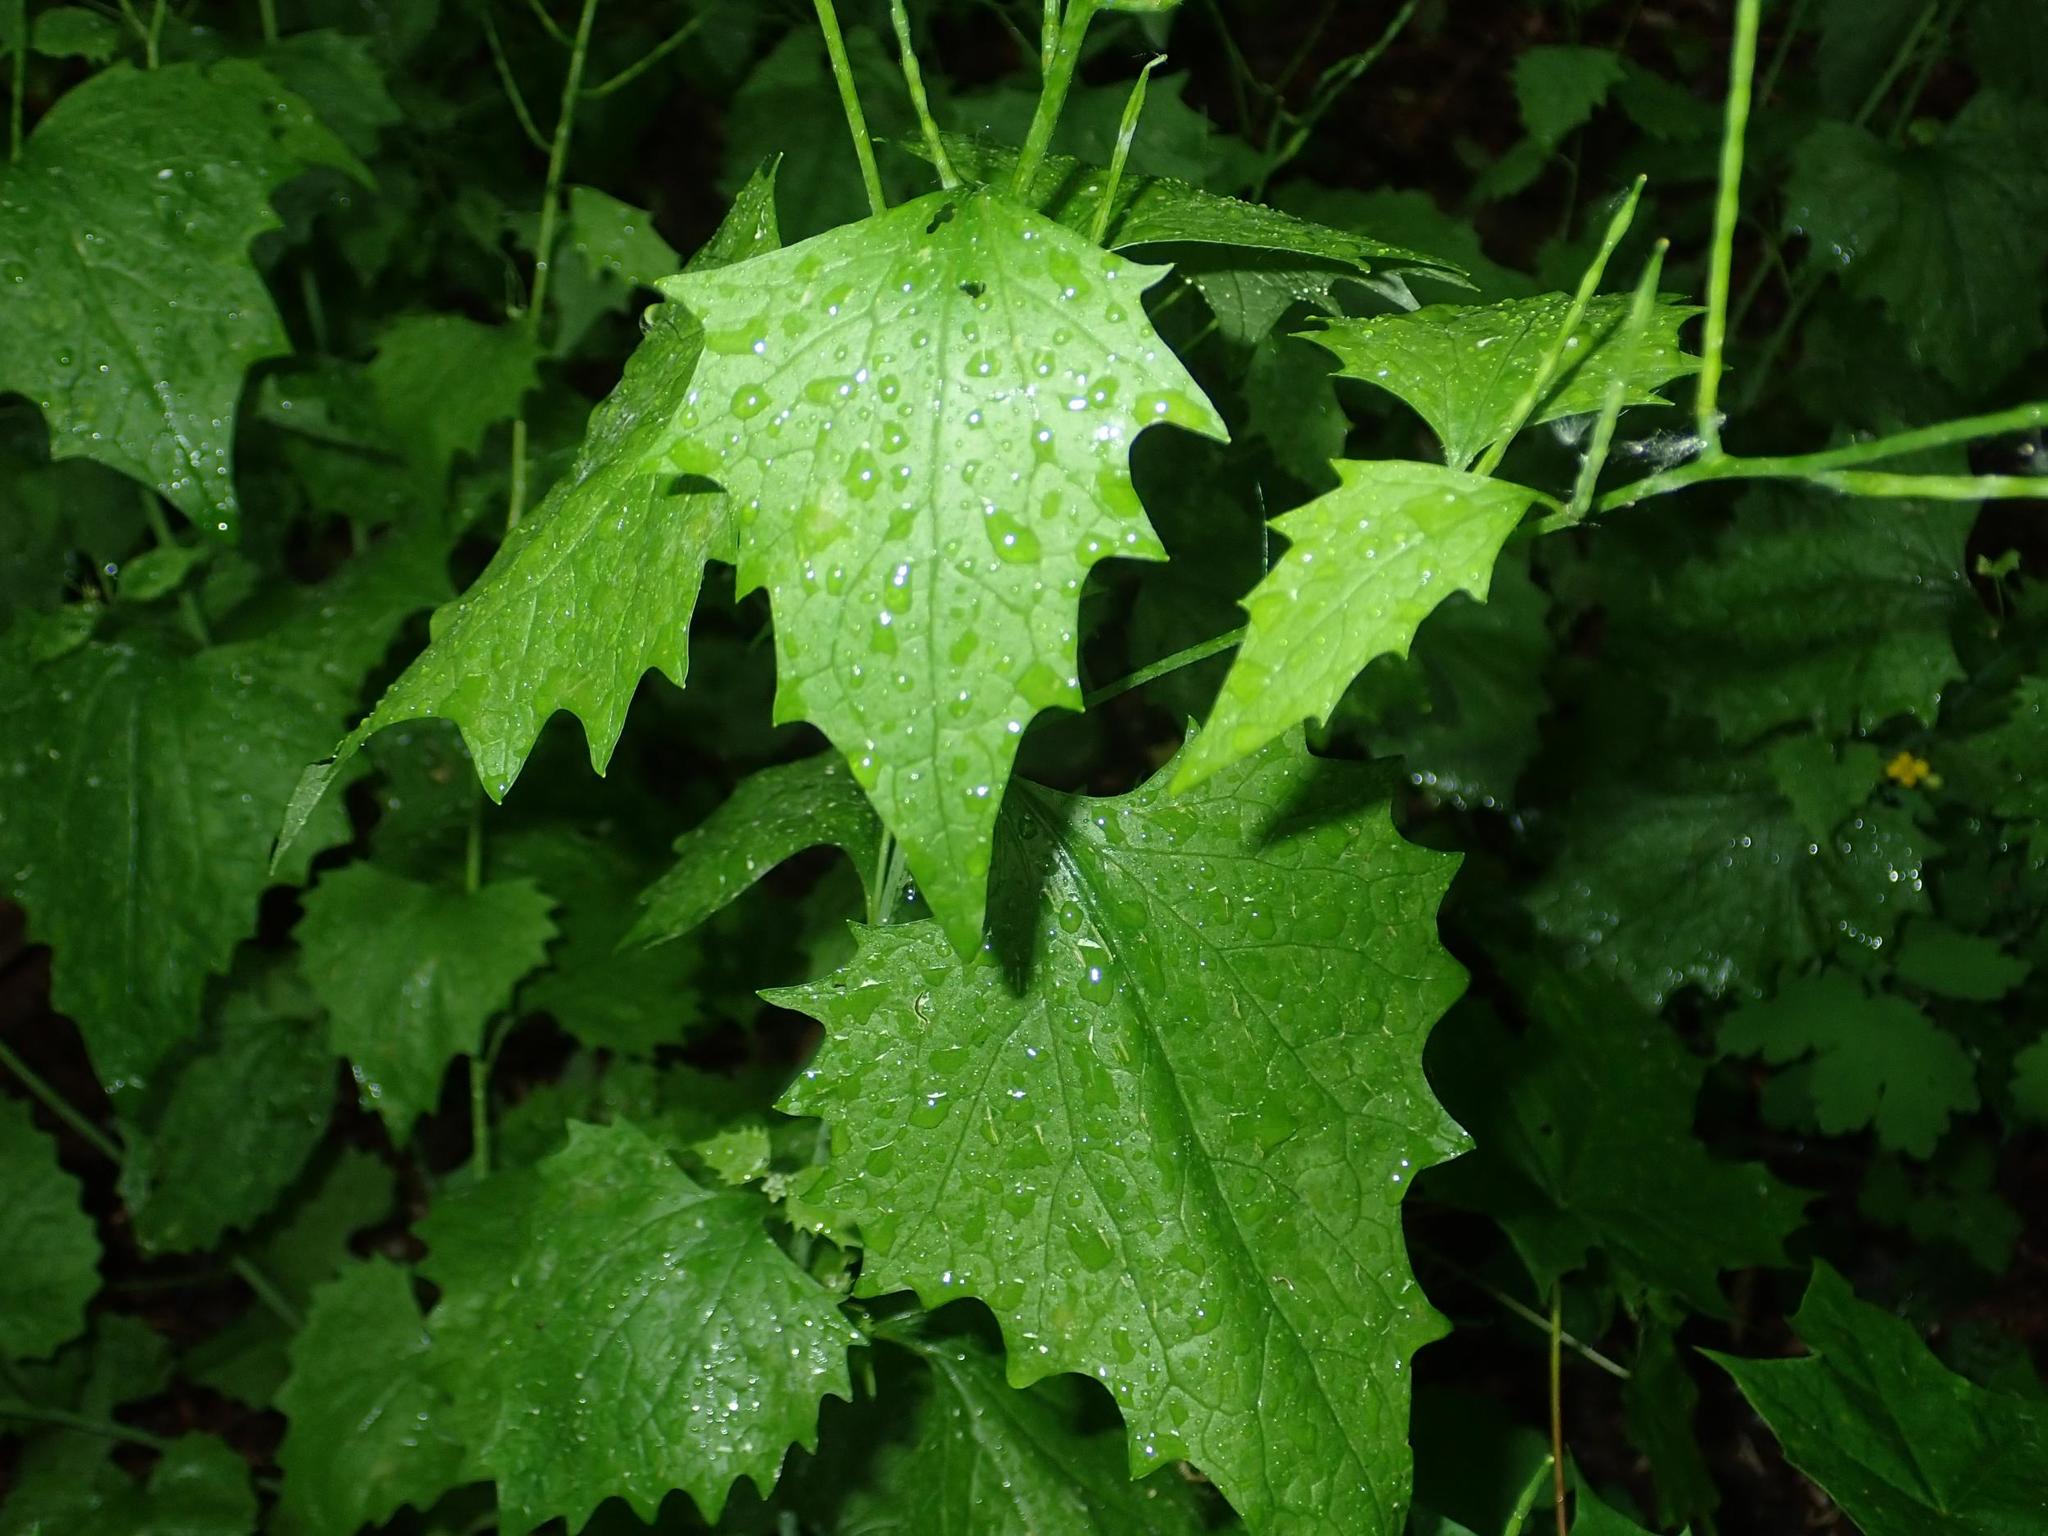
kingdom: Plantae
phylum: Tracheophyta
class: Magnoliopsida
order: Brassicales
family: Brassicaceae
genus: Alliaria
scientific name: Alliaria petiolata
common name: Garlic mustard
